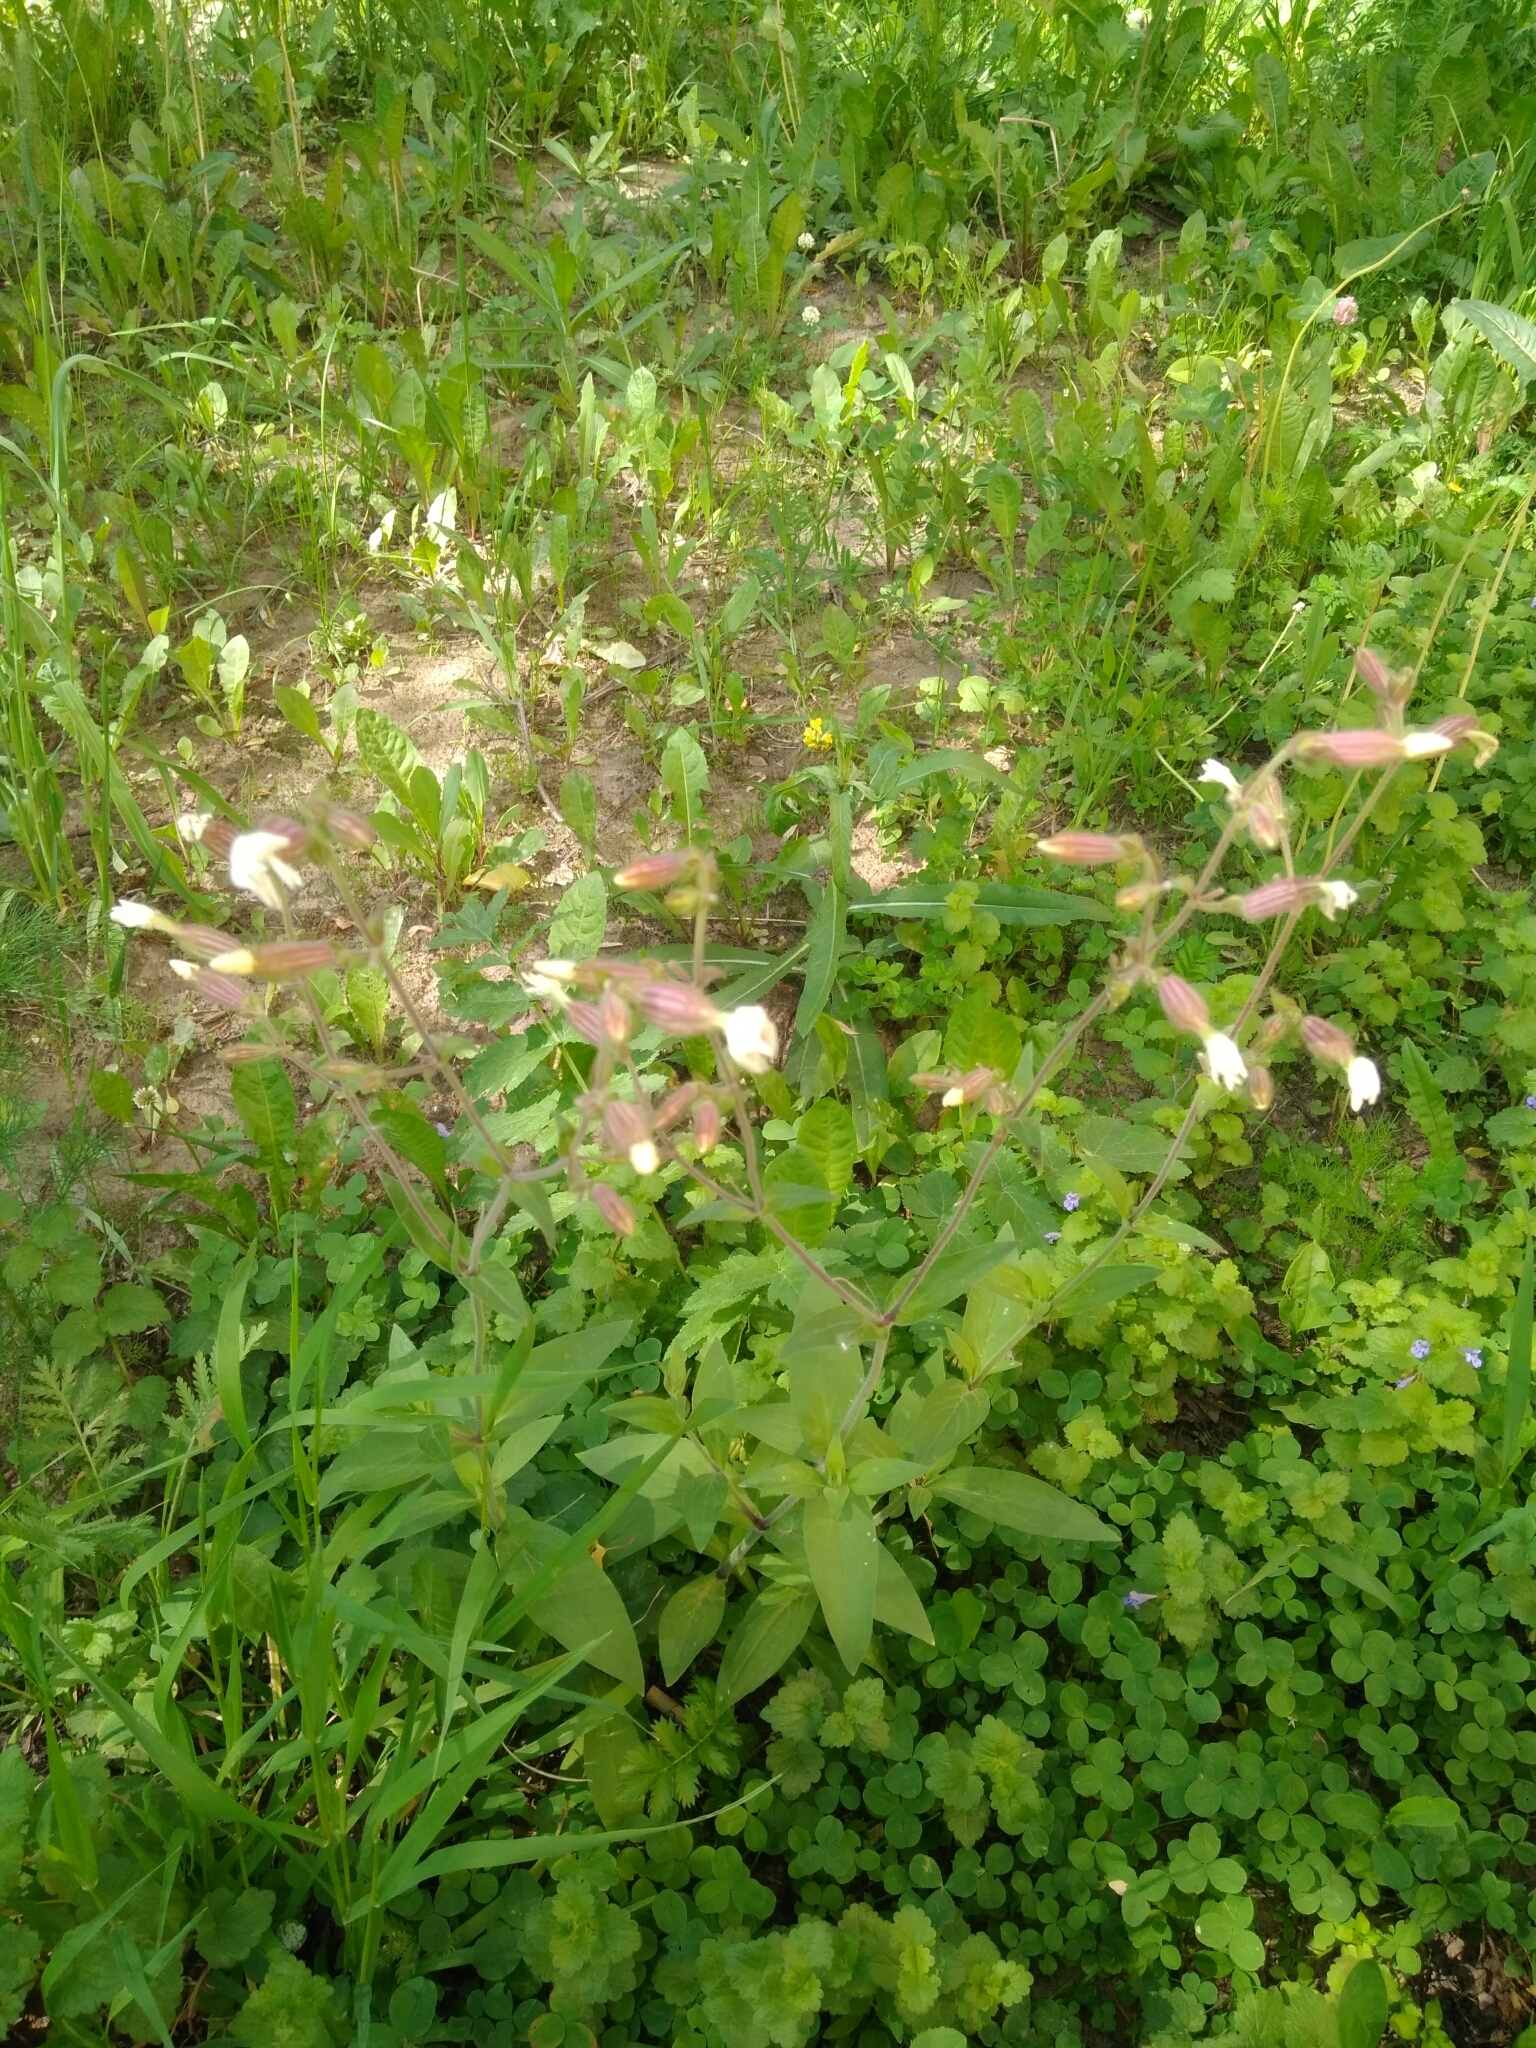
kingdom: Plantae
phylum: Tracheophyta
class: Magnoliopsida
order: Caryophyllales
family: Caryophyllaceae
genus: Silene
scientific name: Silene latifolia
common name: White campion
